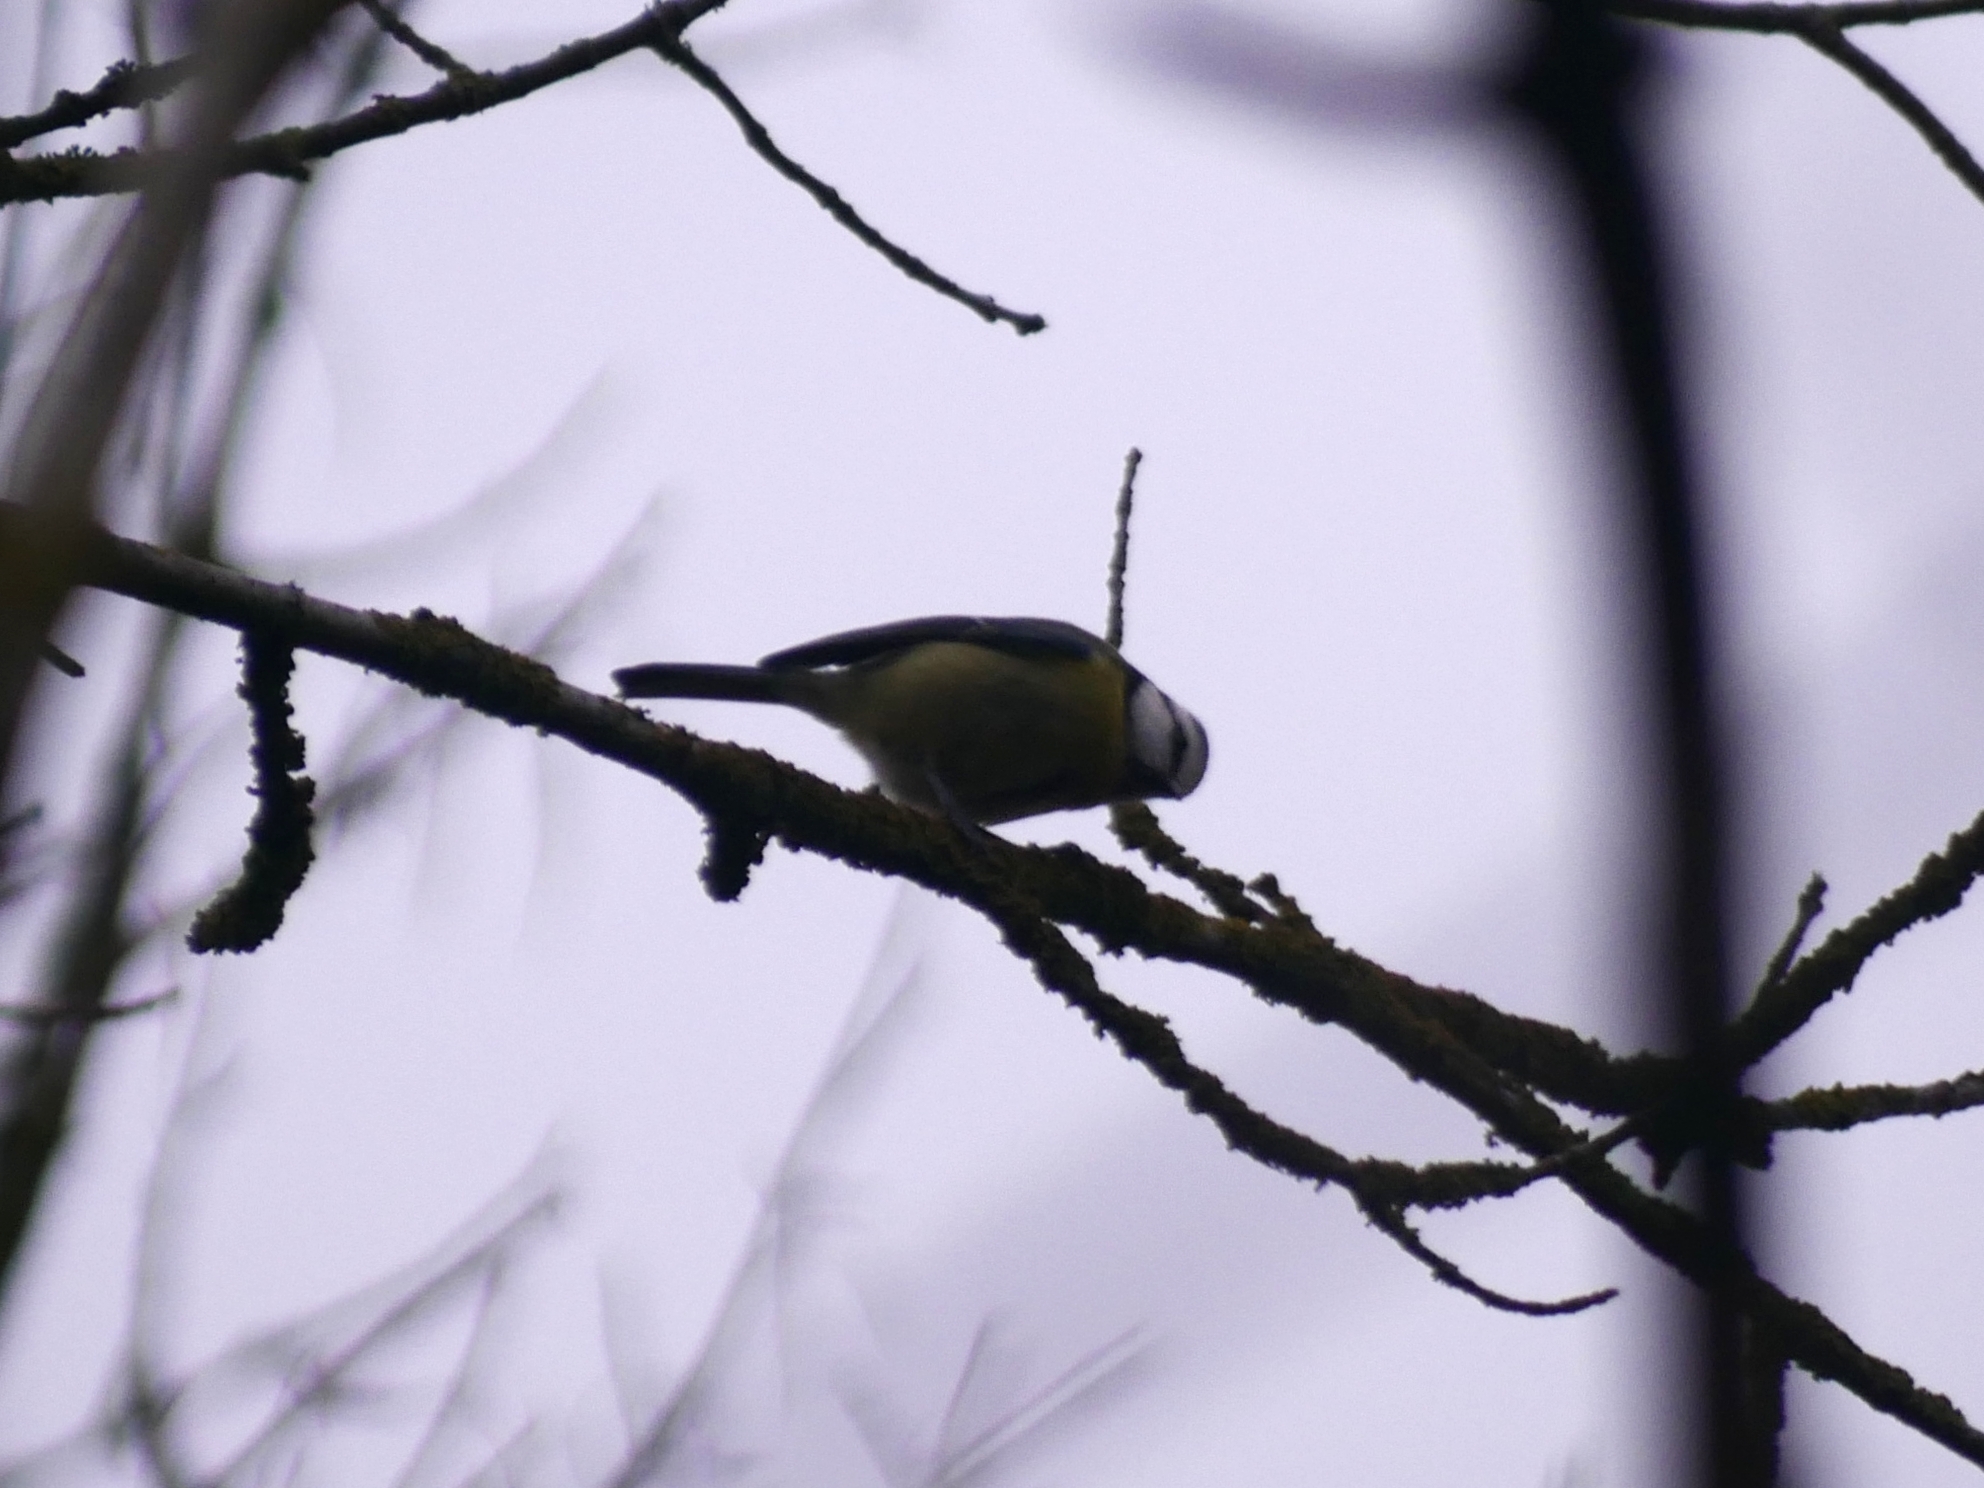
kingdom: Animalia
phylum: Chordata
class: Aves
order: Passeriformes
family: Paridae
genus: Cyanistes
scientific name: Cyanistes caeruleus
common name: Eurasian blue tit
